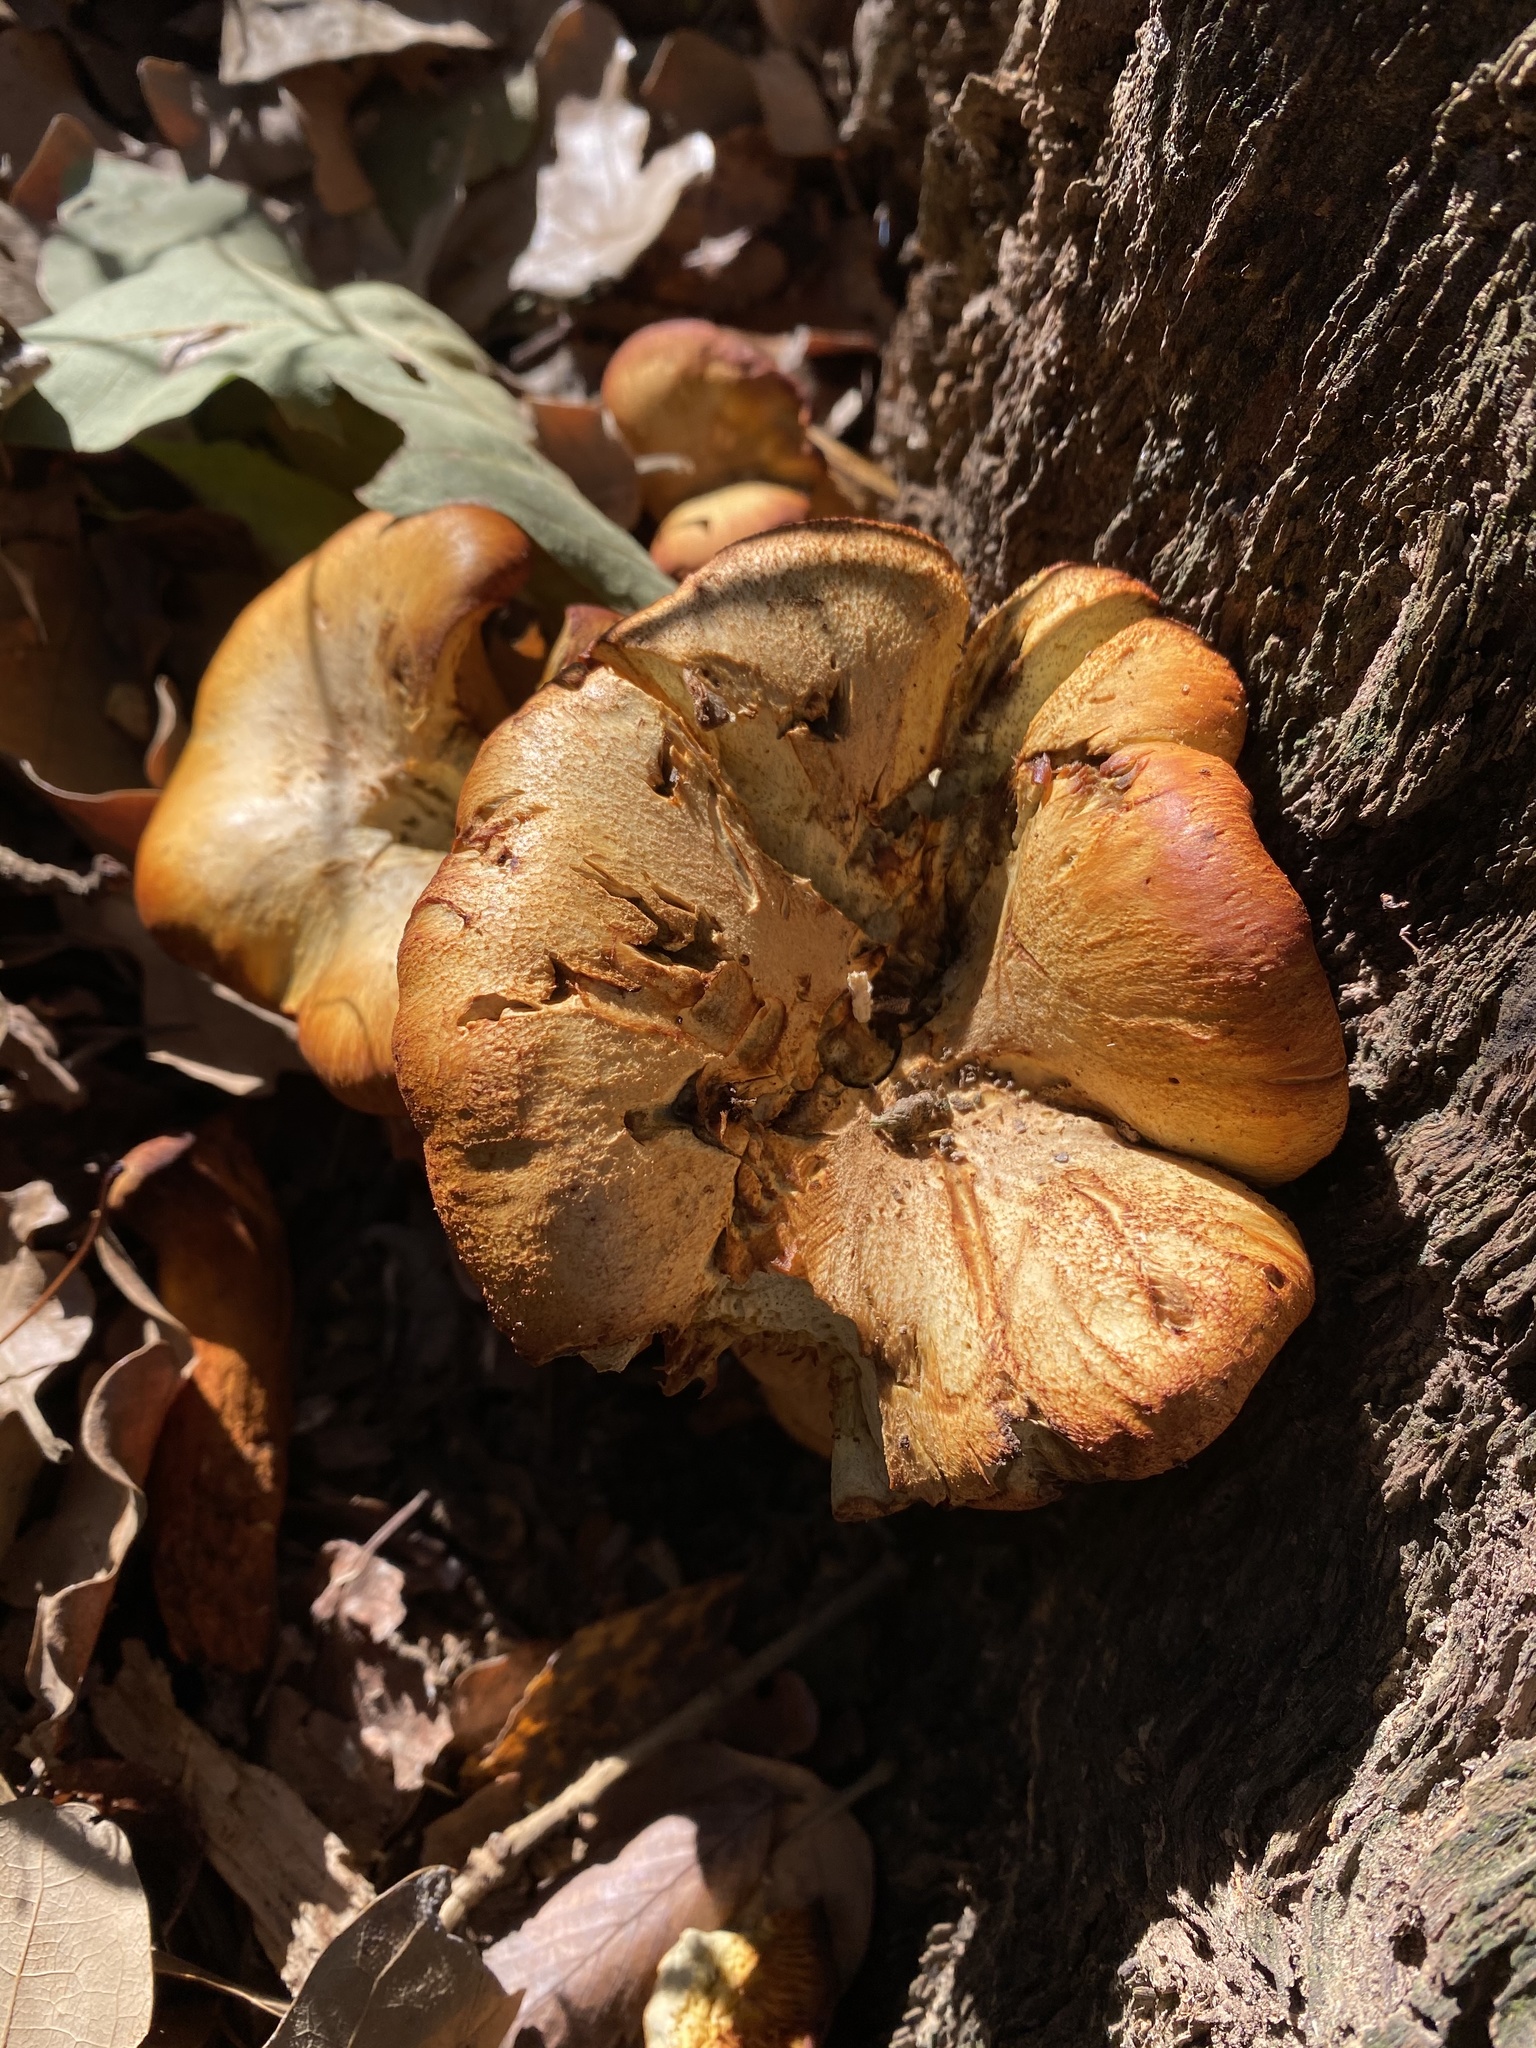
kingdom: Fungi
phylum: Basidiomycota
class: Agaricomycetes
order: Agaricales
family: Omphalotaceae
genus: Omphalotus
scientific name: Omphalotus subilludens
